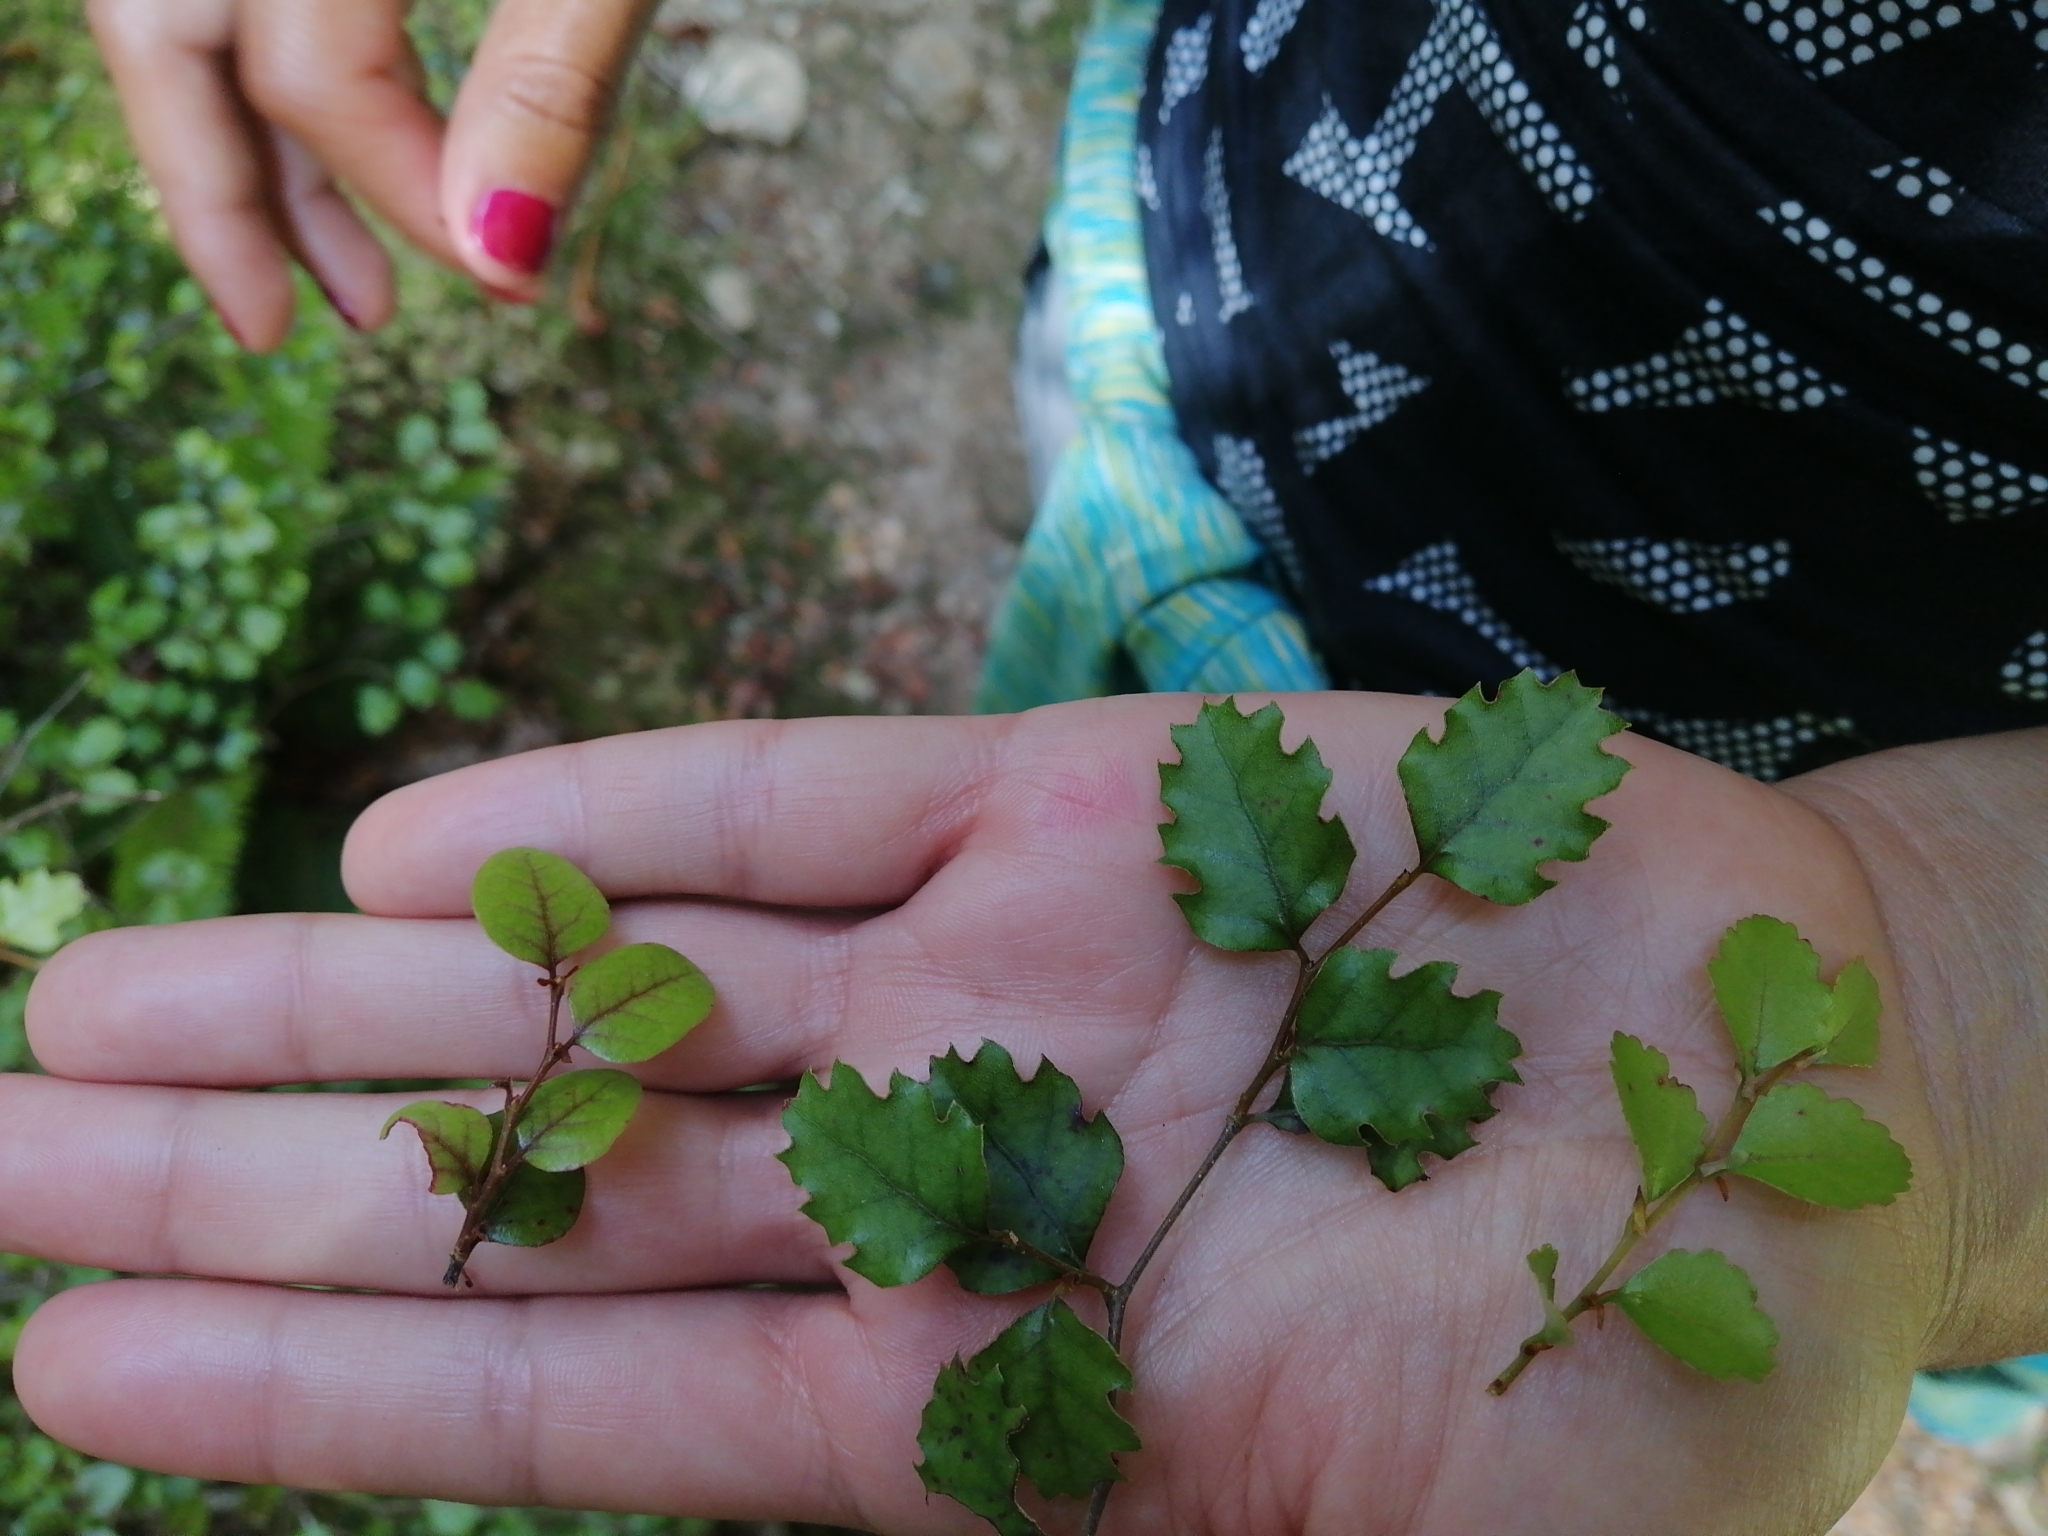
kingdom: Plantae
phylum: Tracheophyta
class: Magnoliopsida
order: Fagales
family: Nothofagaceae
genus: Nothofagus
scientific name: Nothofagus menziesii
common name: Silver beech
